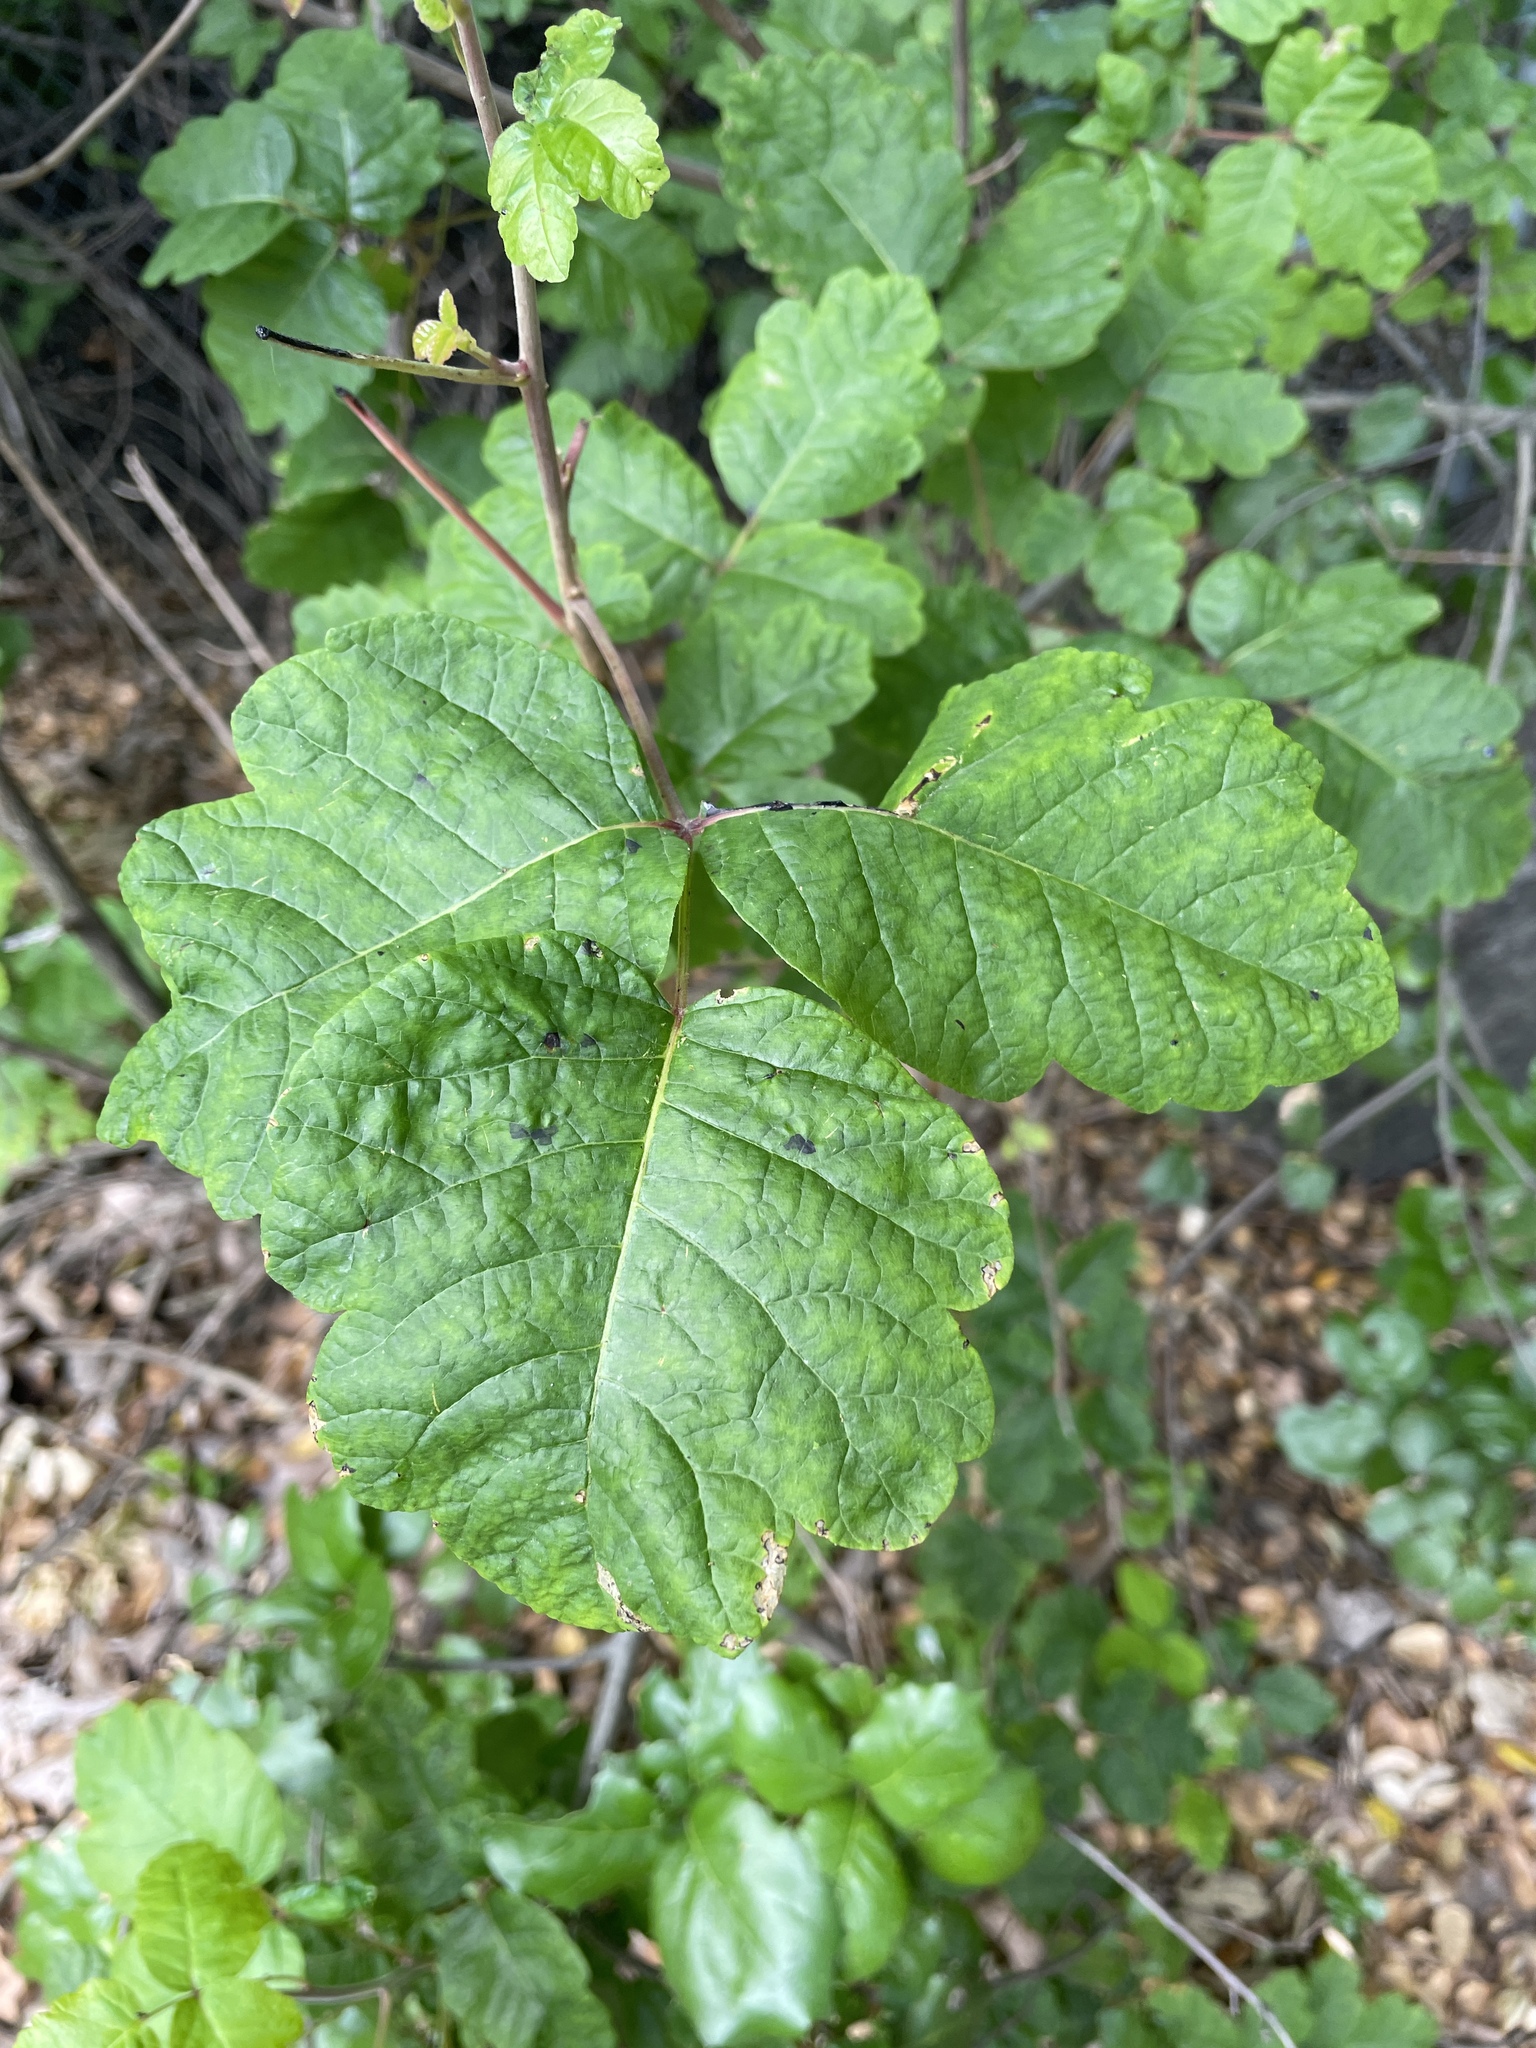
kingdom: Plantae
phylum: Tracheophyta
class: Magnoliopsida
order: Sapindales
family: Anacardiaceae
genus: Toxicodendron
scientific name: Toxicodendron diversilobum
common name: Pacific poison-oak
